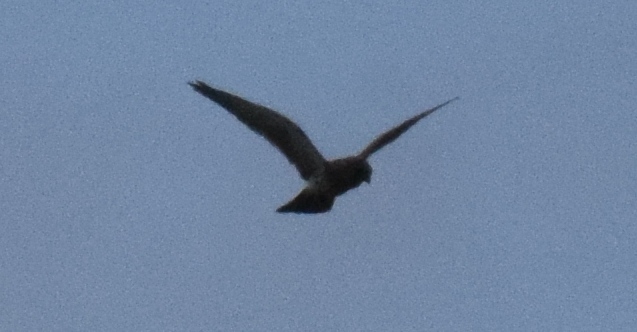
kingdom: Animalia
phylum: Chordata
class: Aves
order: Falconiformes
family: Falconidae
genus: Falco
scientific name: Falco tinnunculus
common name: Common kestrel
